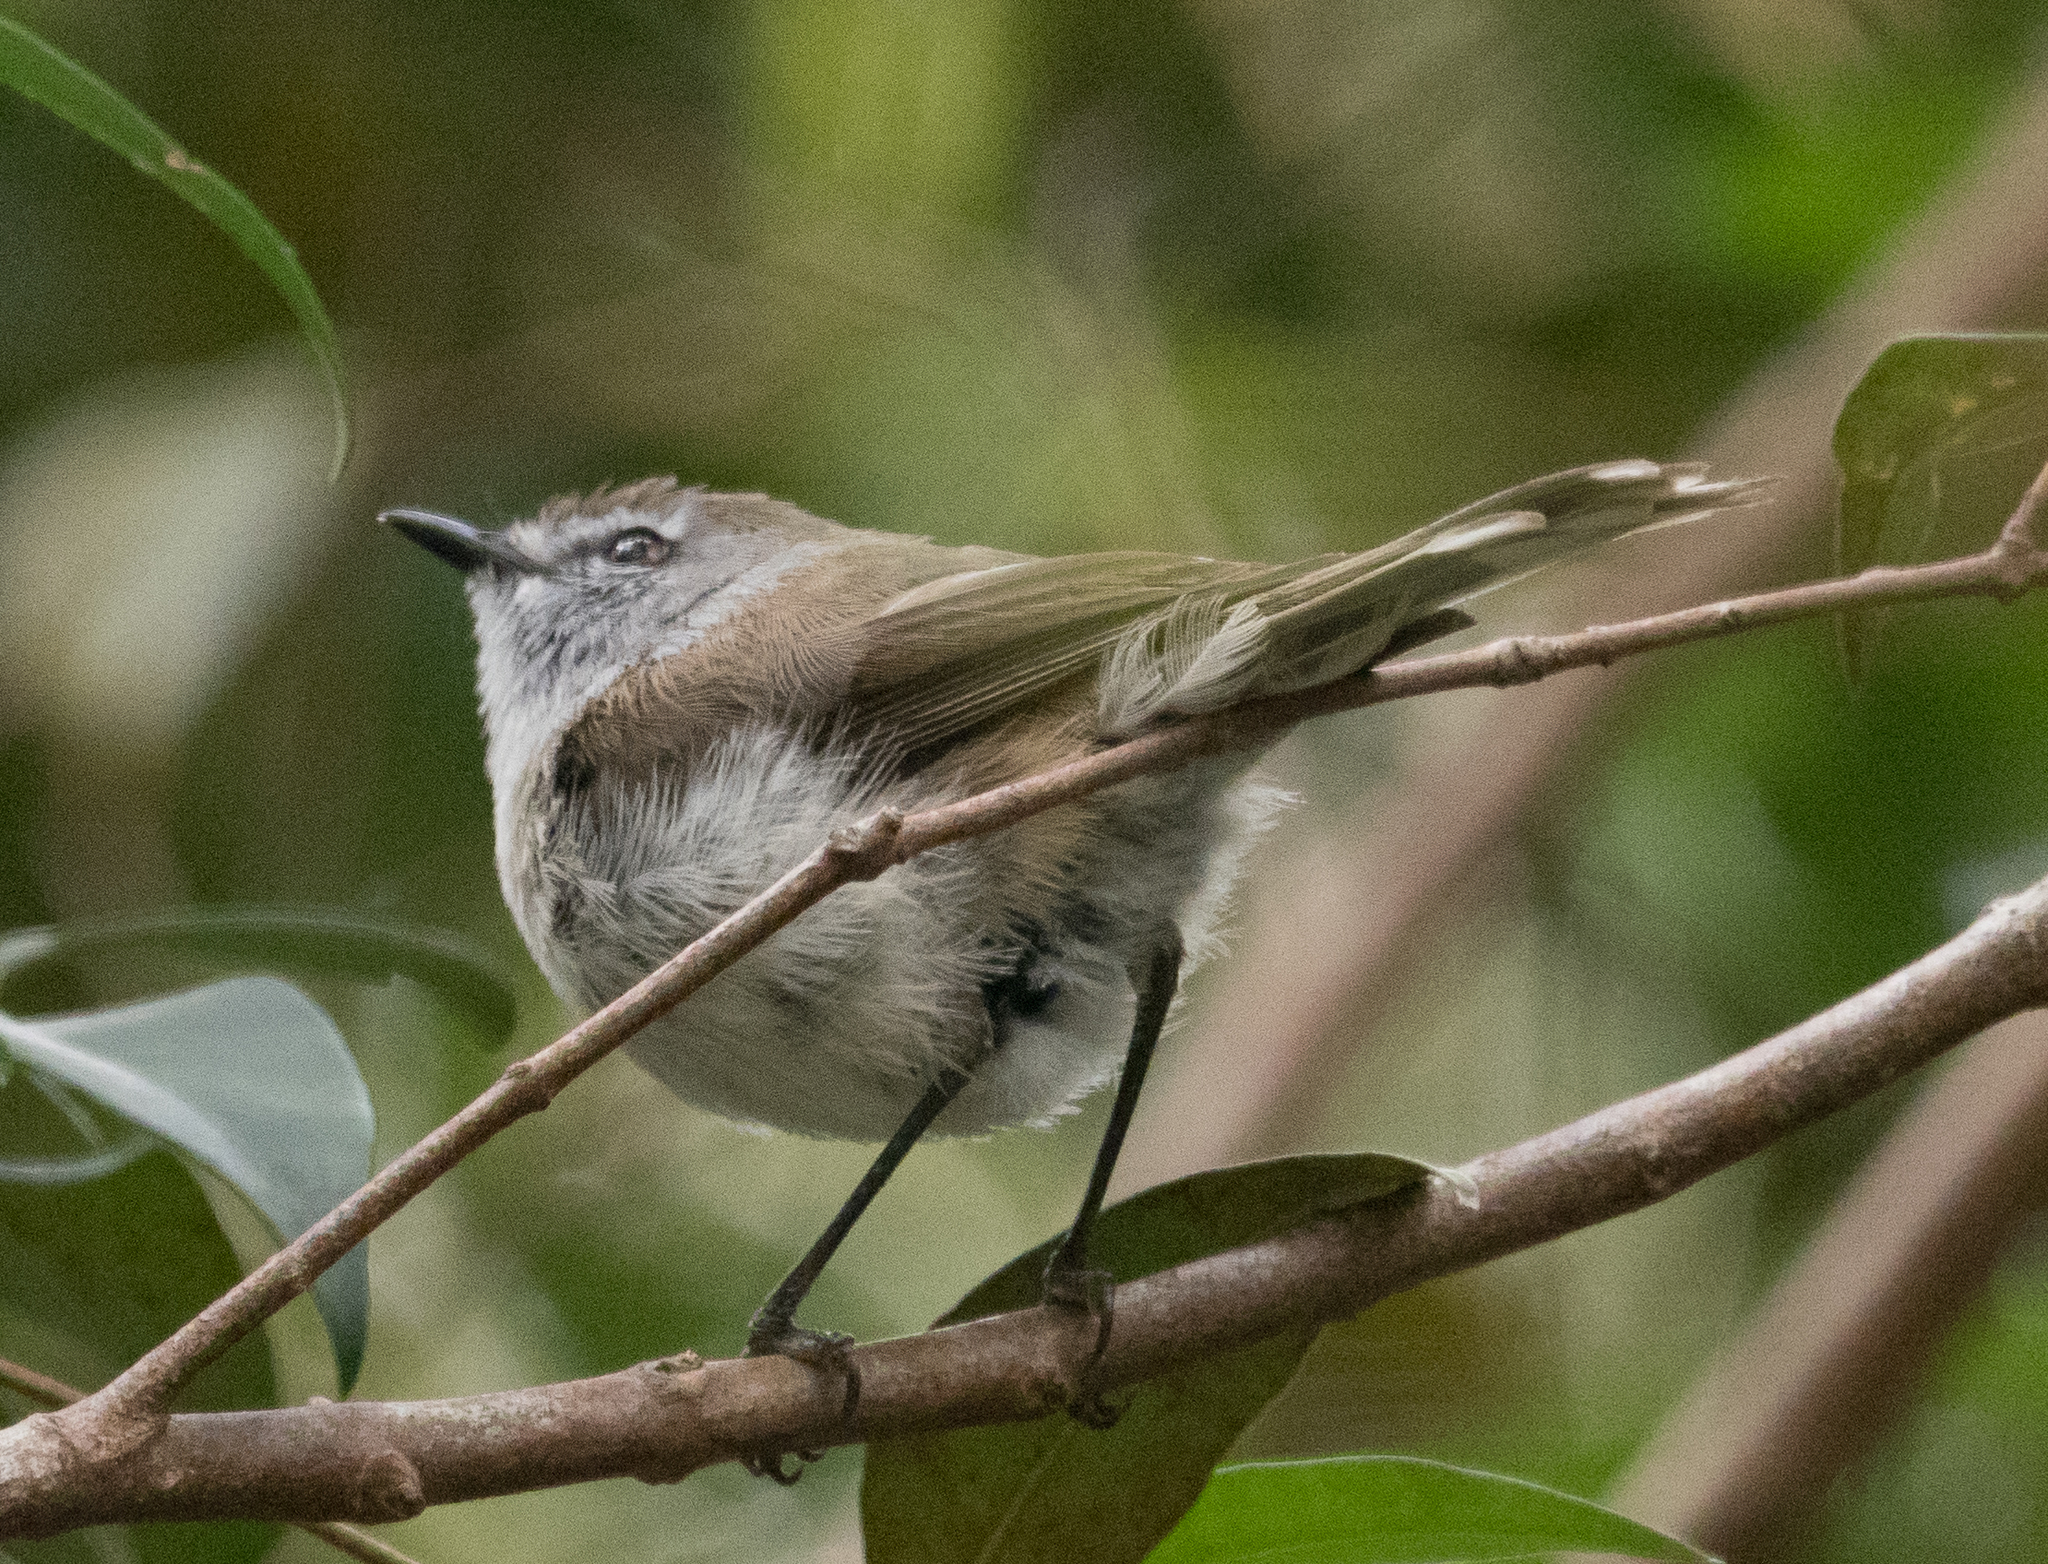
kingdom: Animalia
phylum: Chordata
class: Aves
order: Passeriformes
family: Acanthizidae
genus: Gerygone
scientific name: Gerygone mouki
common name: Brown gerygone
